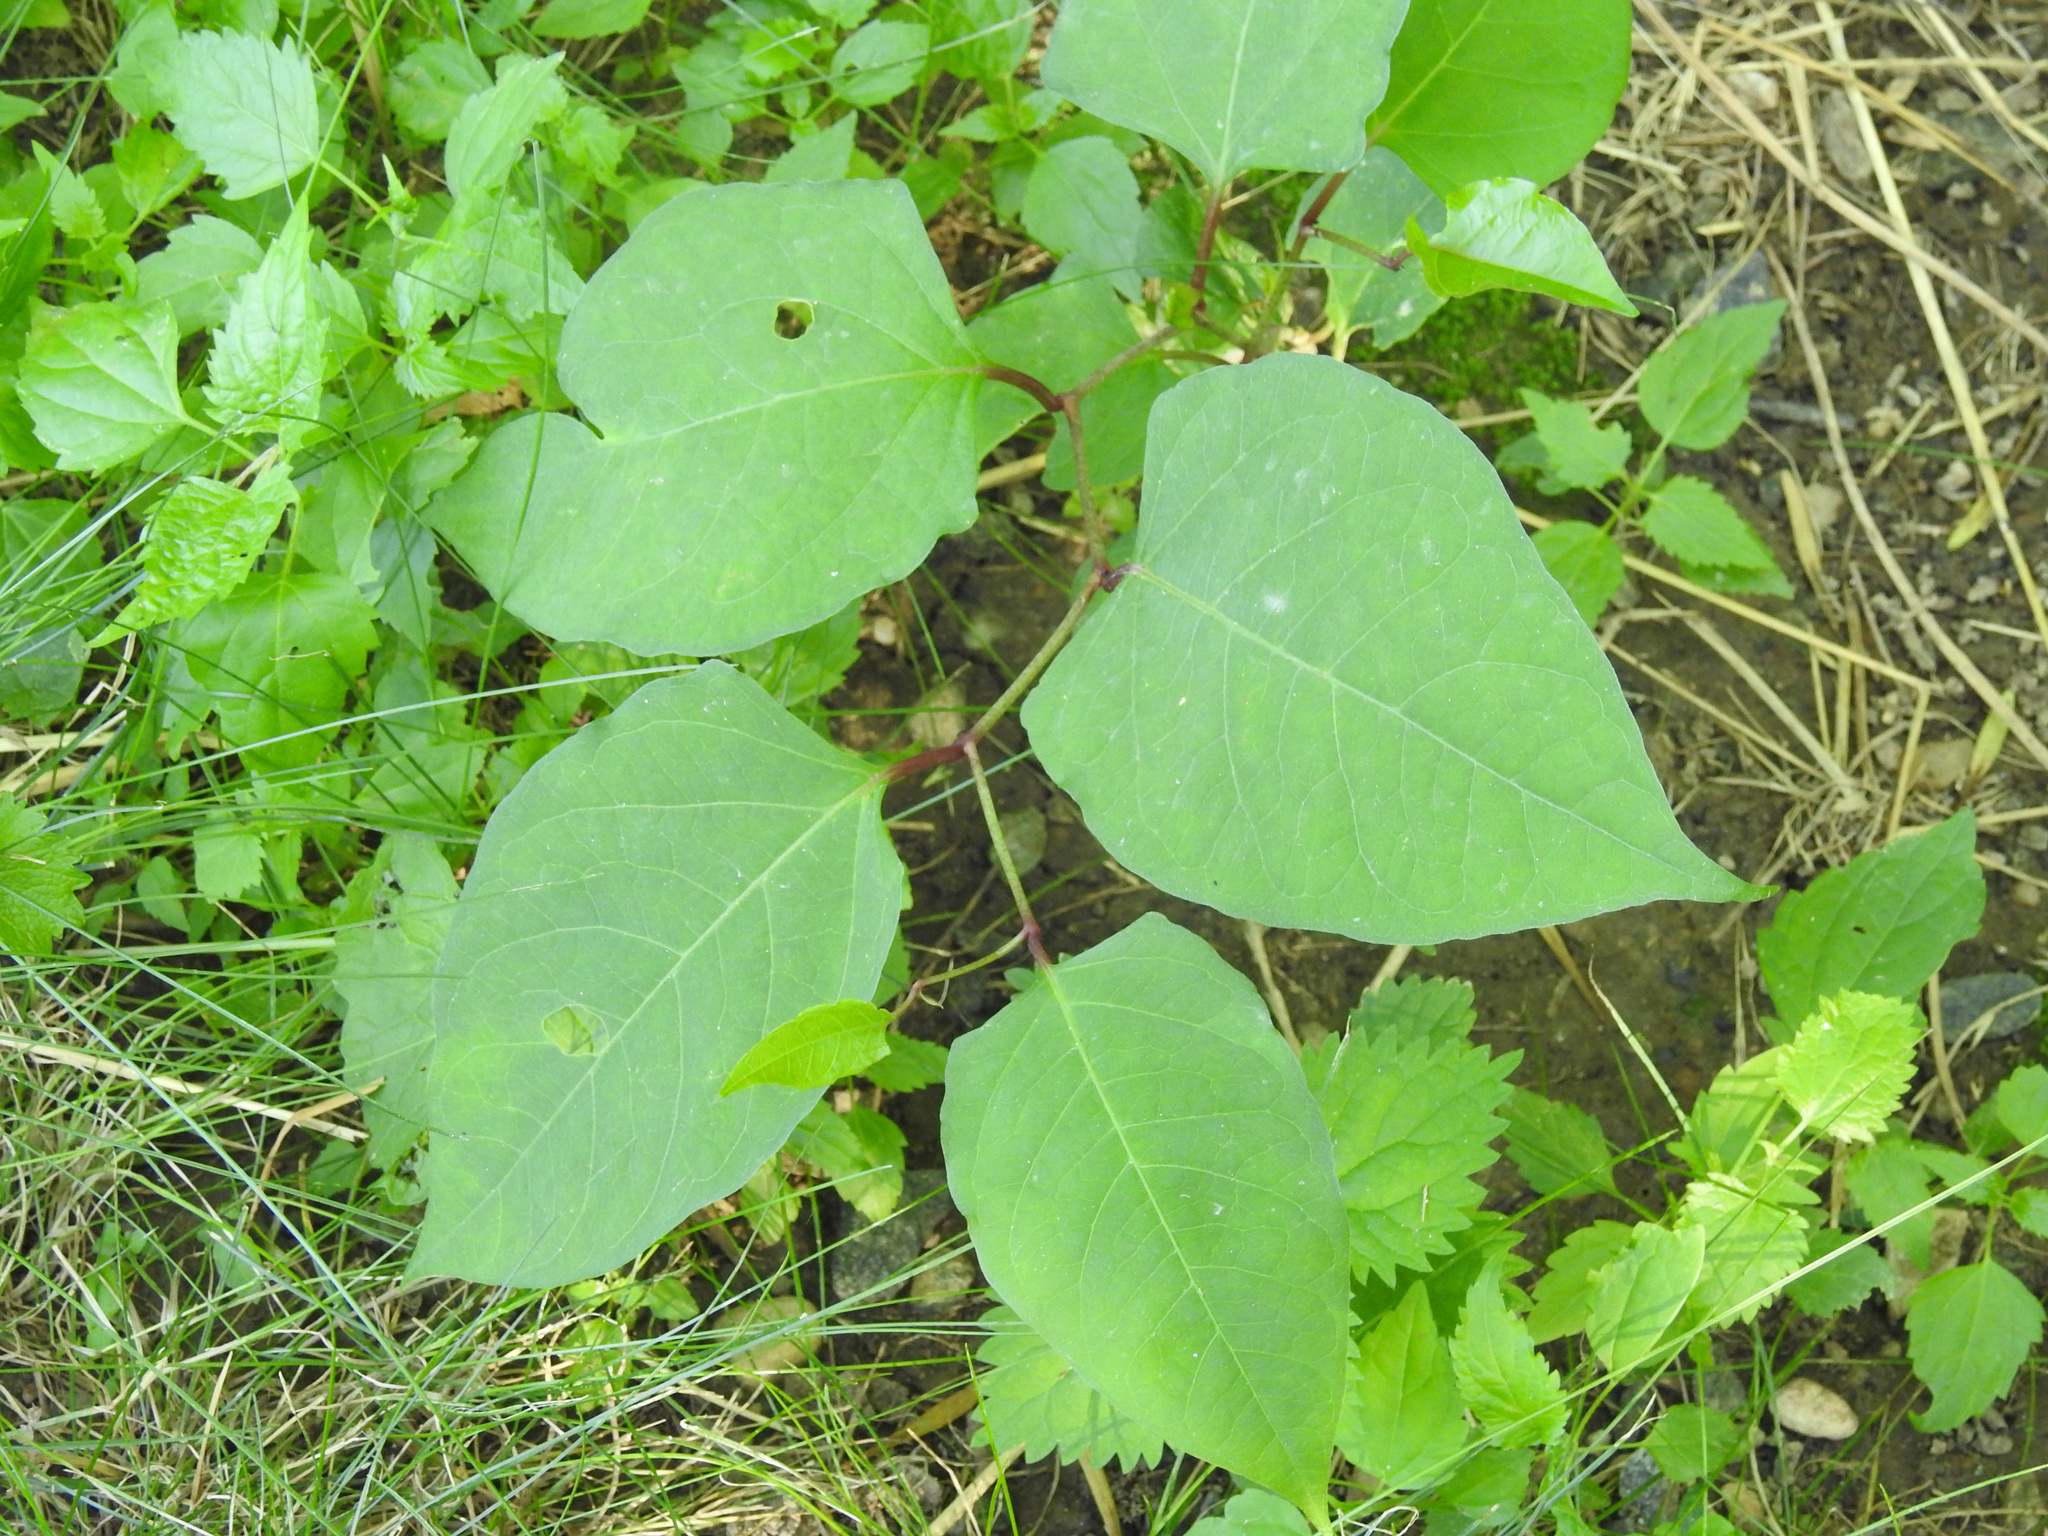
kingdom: Plantae
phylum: Tracheophyta
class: Magnoliopsida
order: Caryophyllales
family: Polygonaceae
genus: Reynoutria
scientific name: Reynoutria japonica
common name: Japanese knotweed
